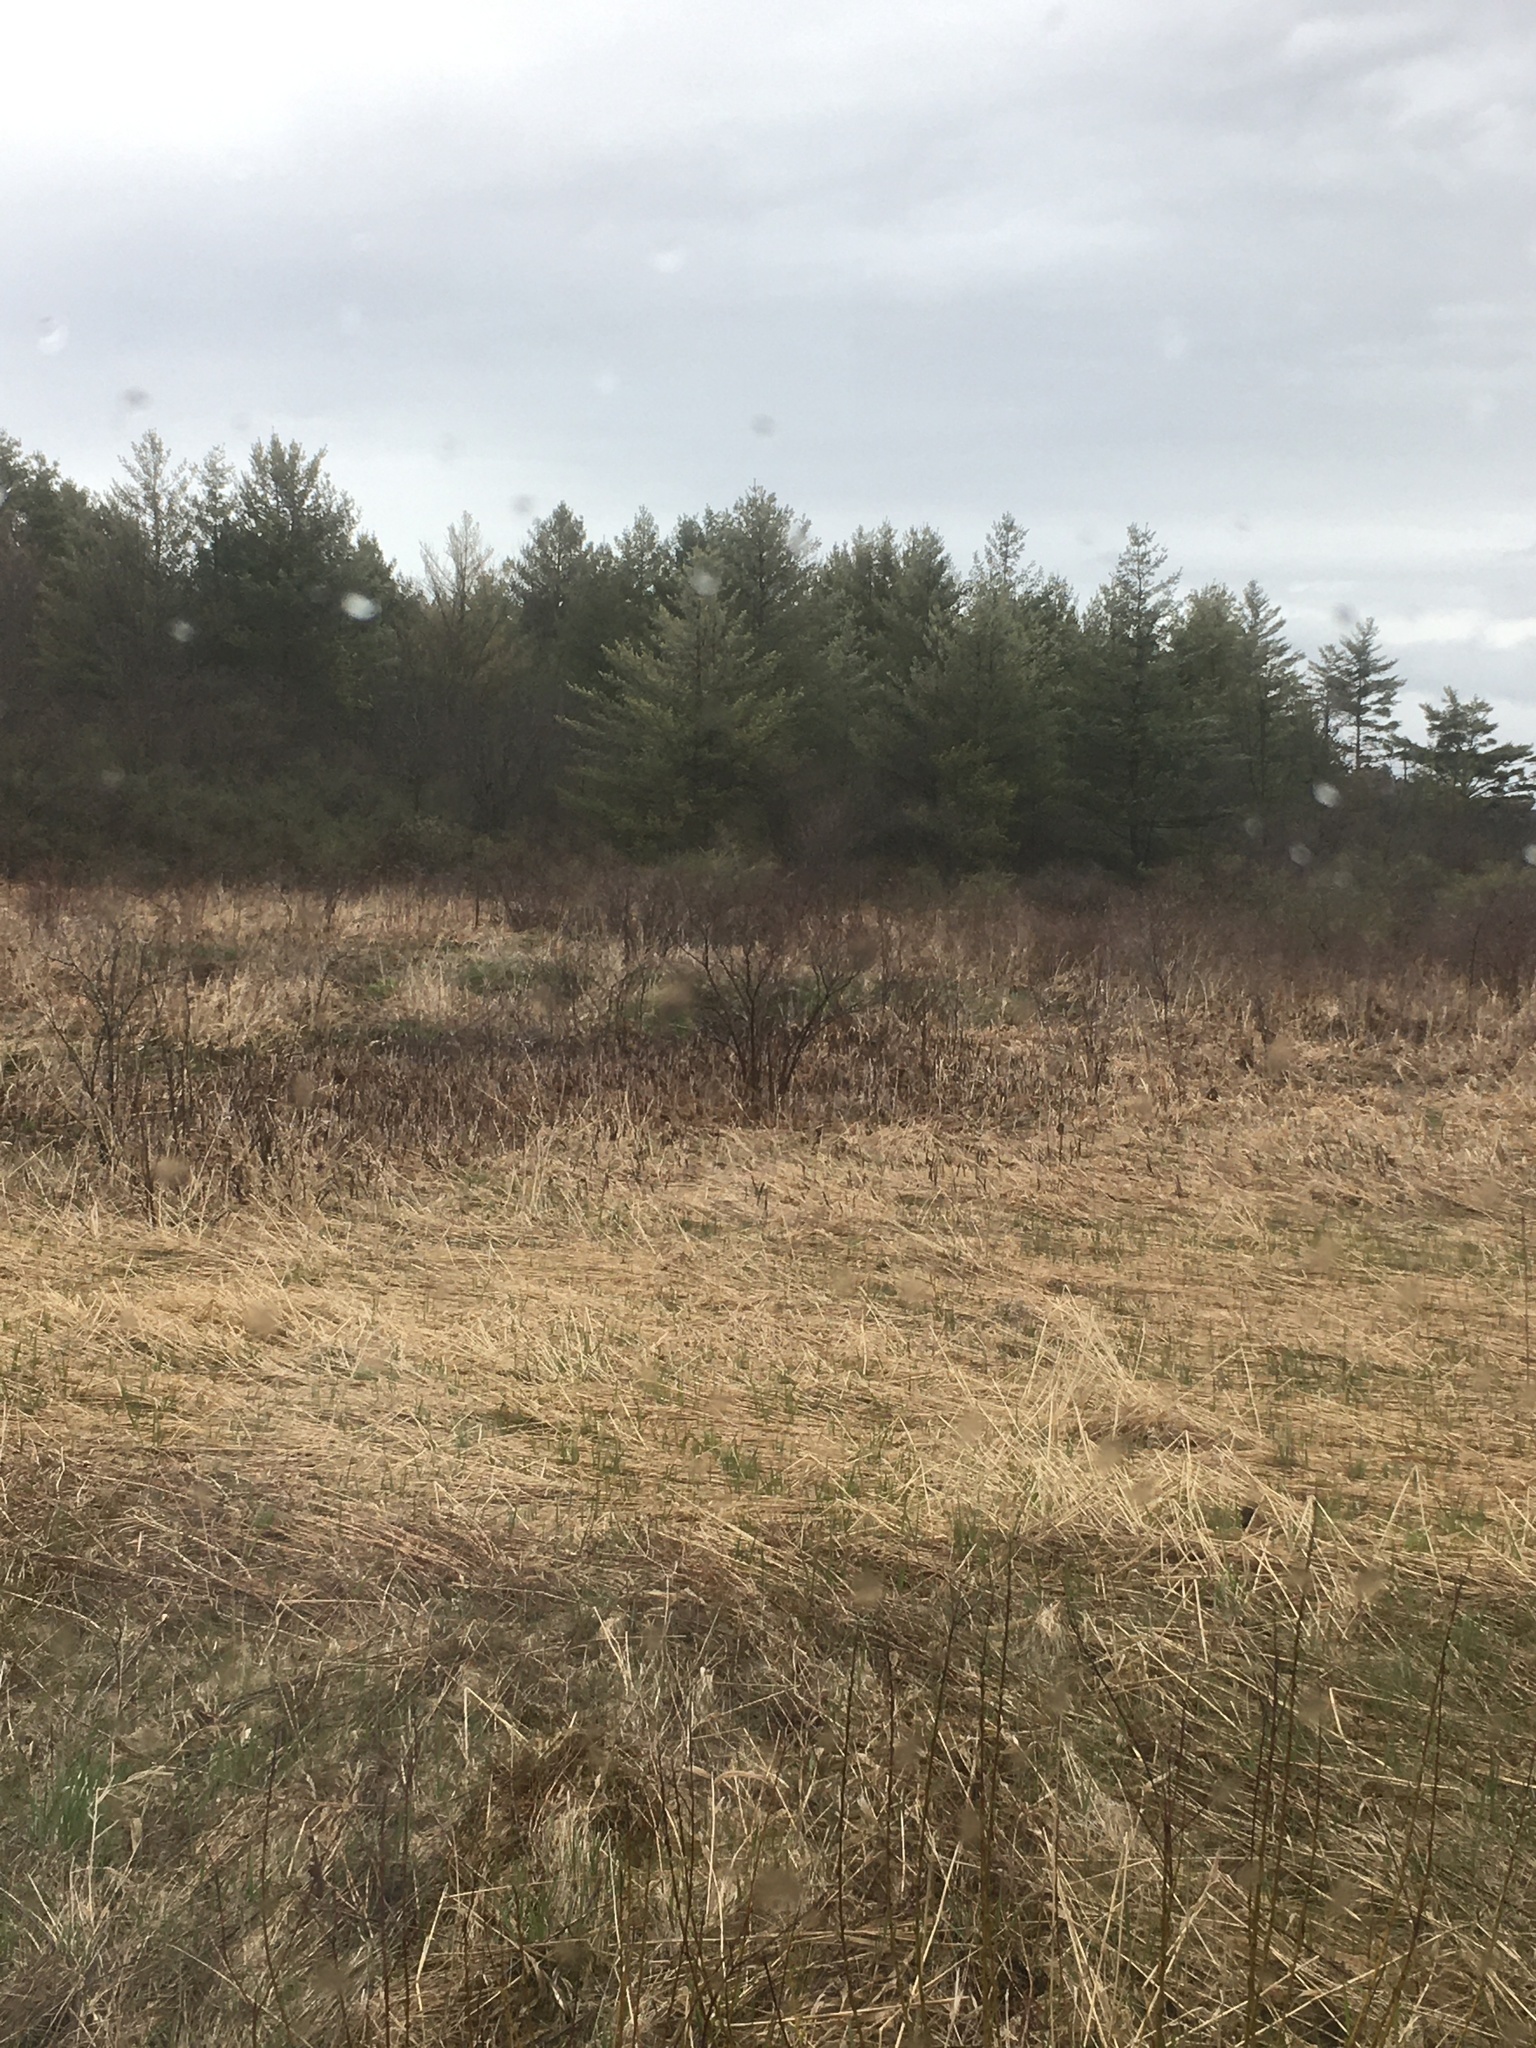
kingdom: Plantae
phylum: Tracheophyta
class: Pinopsida
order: Pinales
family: Pinaceae
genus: Pinus
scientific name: Pinus strobus
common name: Weymouth pine
